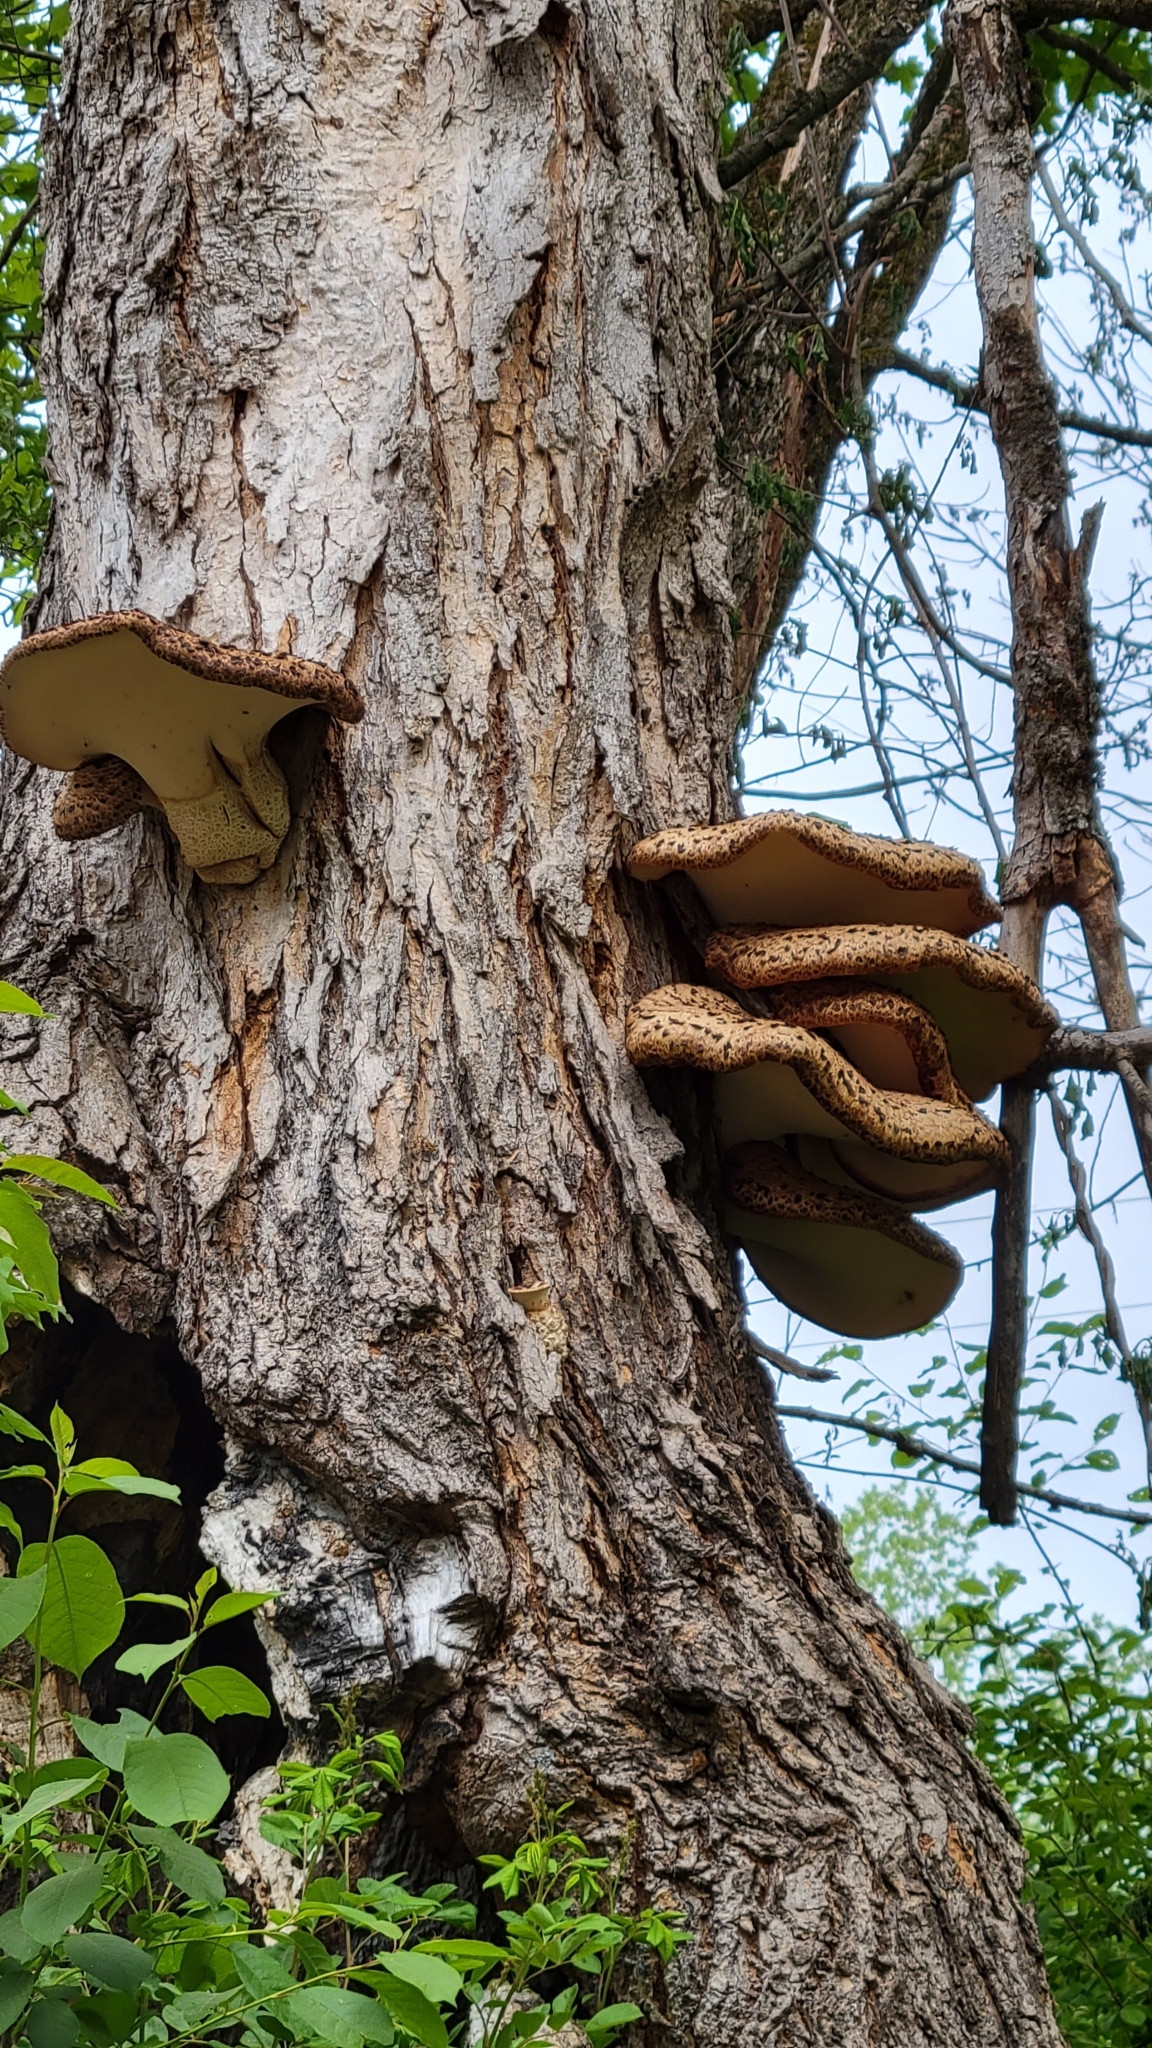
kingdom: Fungi
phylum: Basidiomycota
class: Agaricomycetes
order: Polyporales
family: Polyporaceae
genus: Cerioporus
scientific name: Cerioporus squamosus
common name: Dryad's saddle
